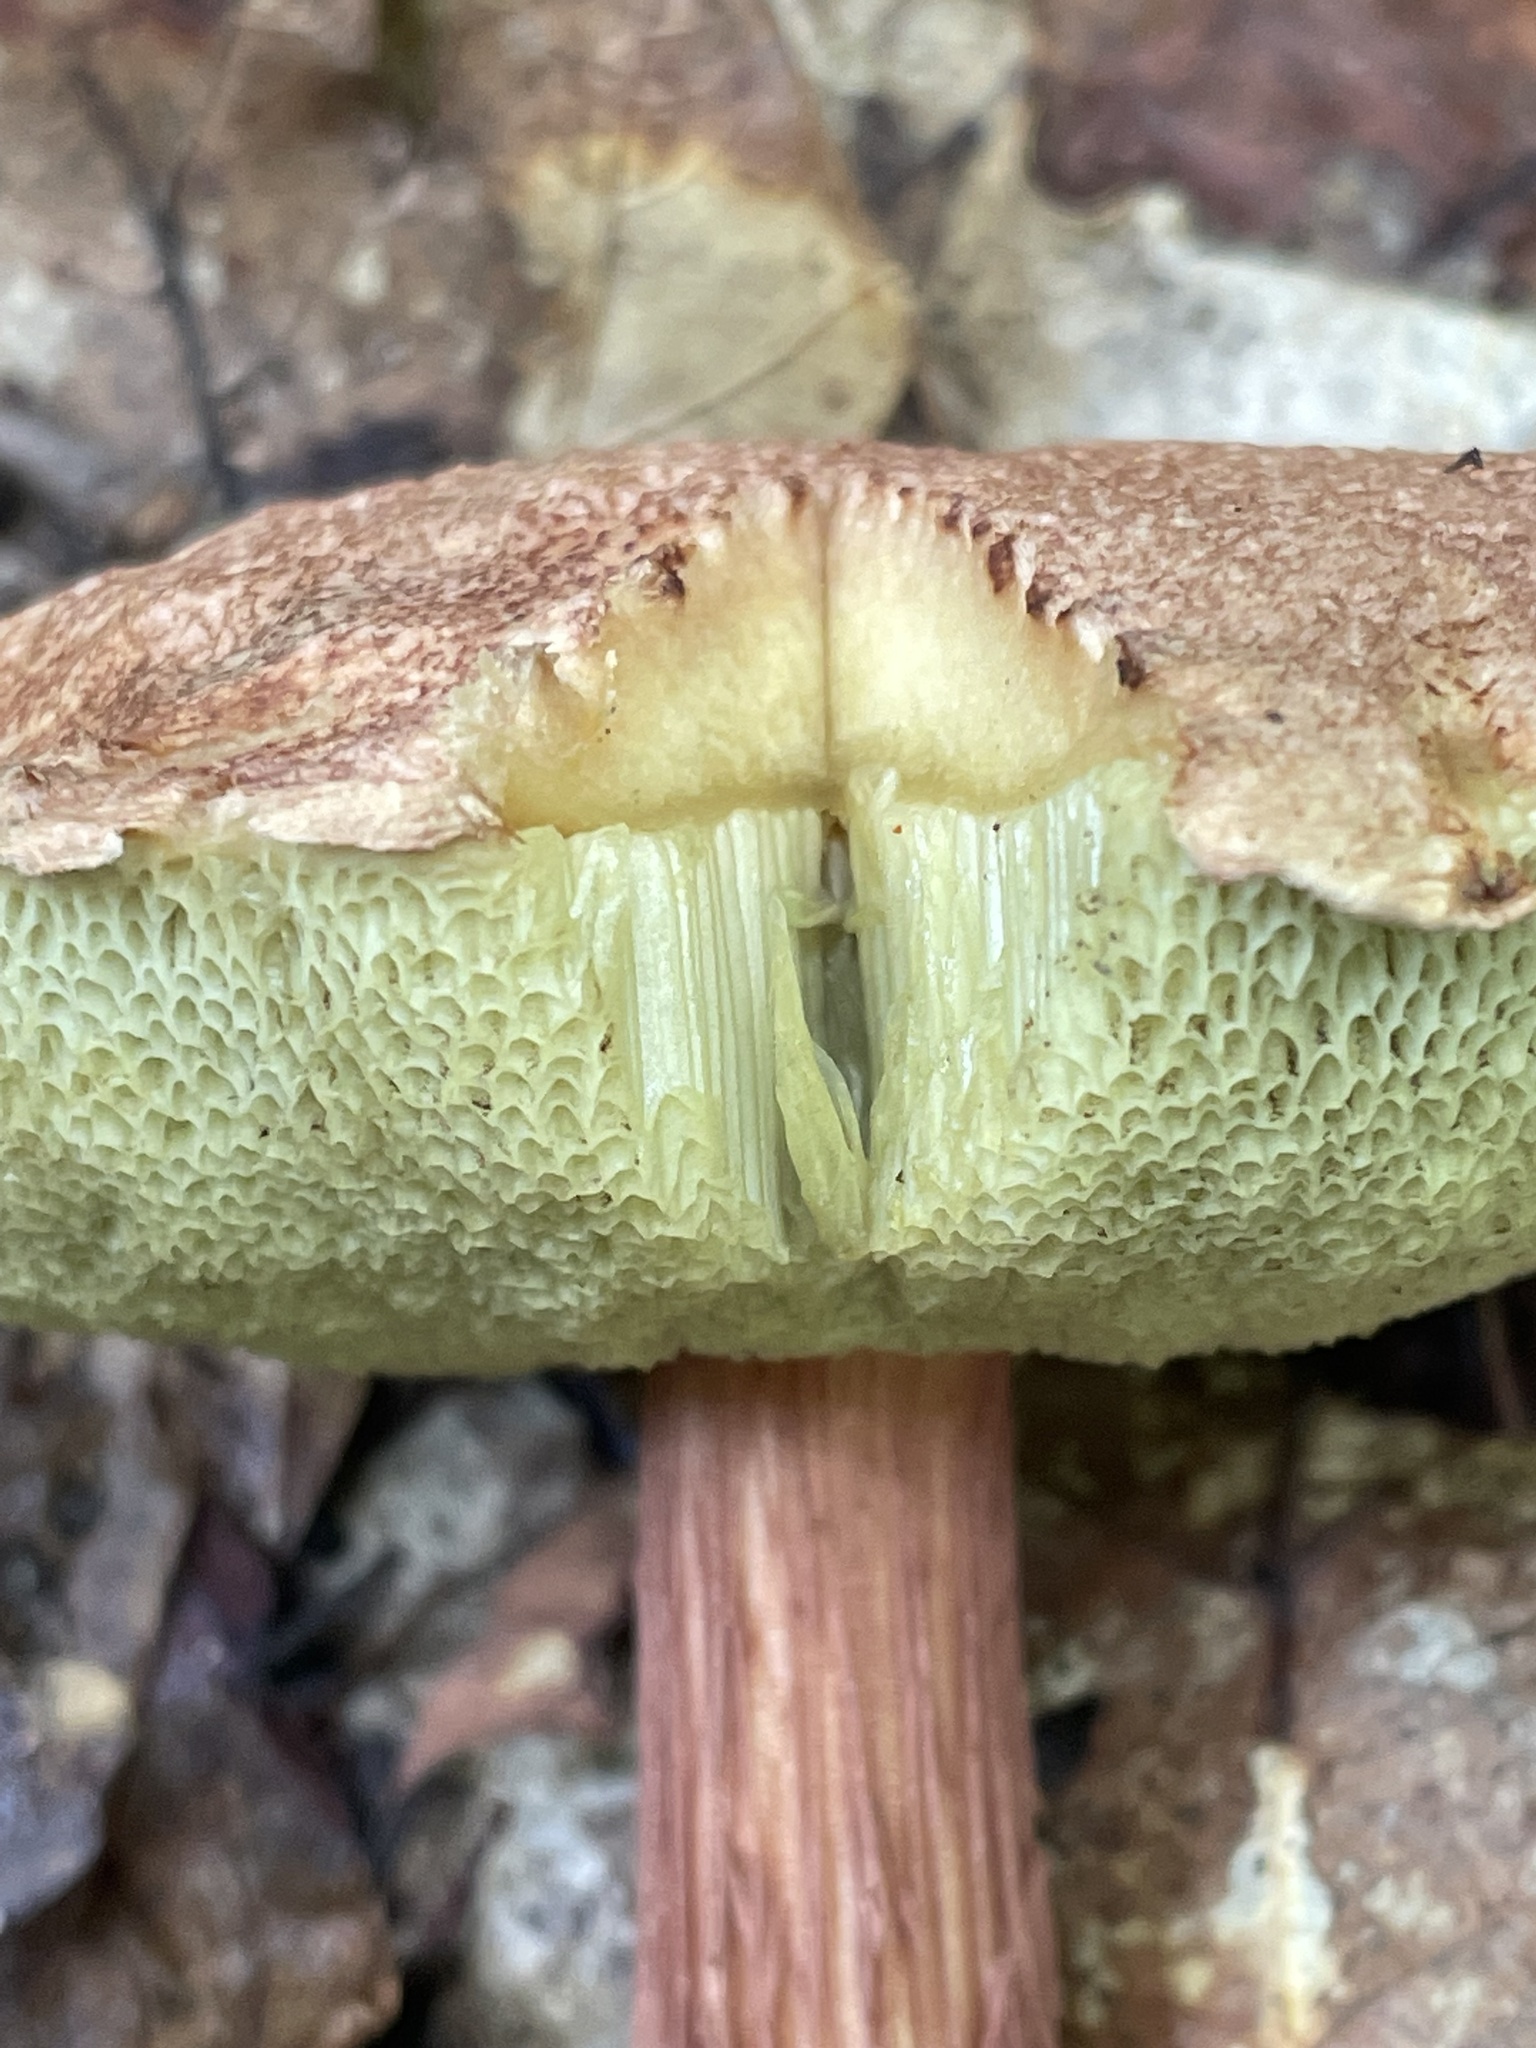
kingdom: Fungi
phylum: Basidiomycota
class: Agaricomycetes
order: Boletales
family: Boletaceae
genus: Aureoboletus
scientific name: Aureoboletus russellii
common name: Russell's bolete
